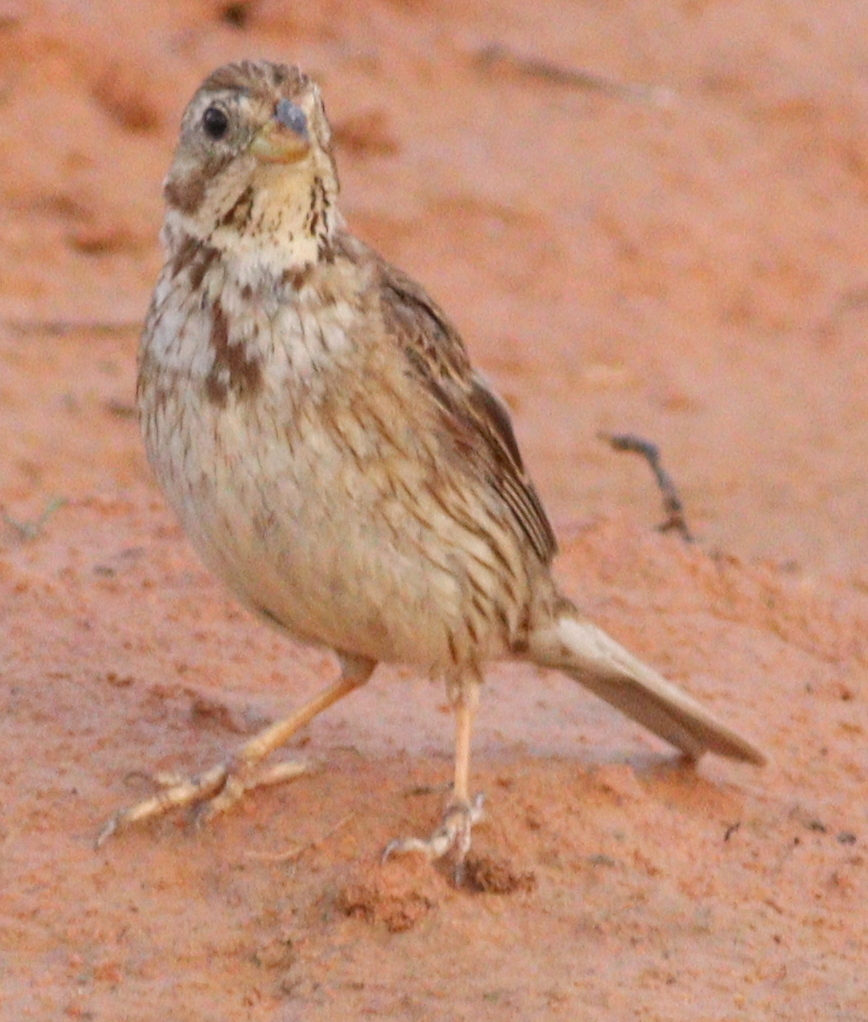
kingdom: Animalia
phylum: Chordata
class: Aves
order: Passeriformes
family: Emberizidae
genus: Emberiza
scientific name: Emberiza calandra
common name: Corn bunting
